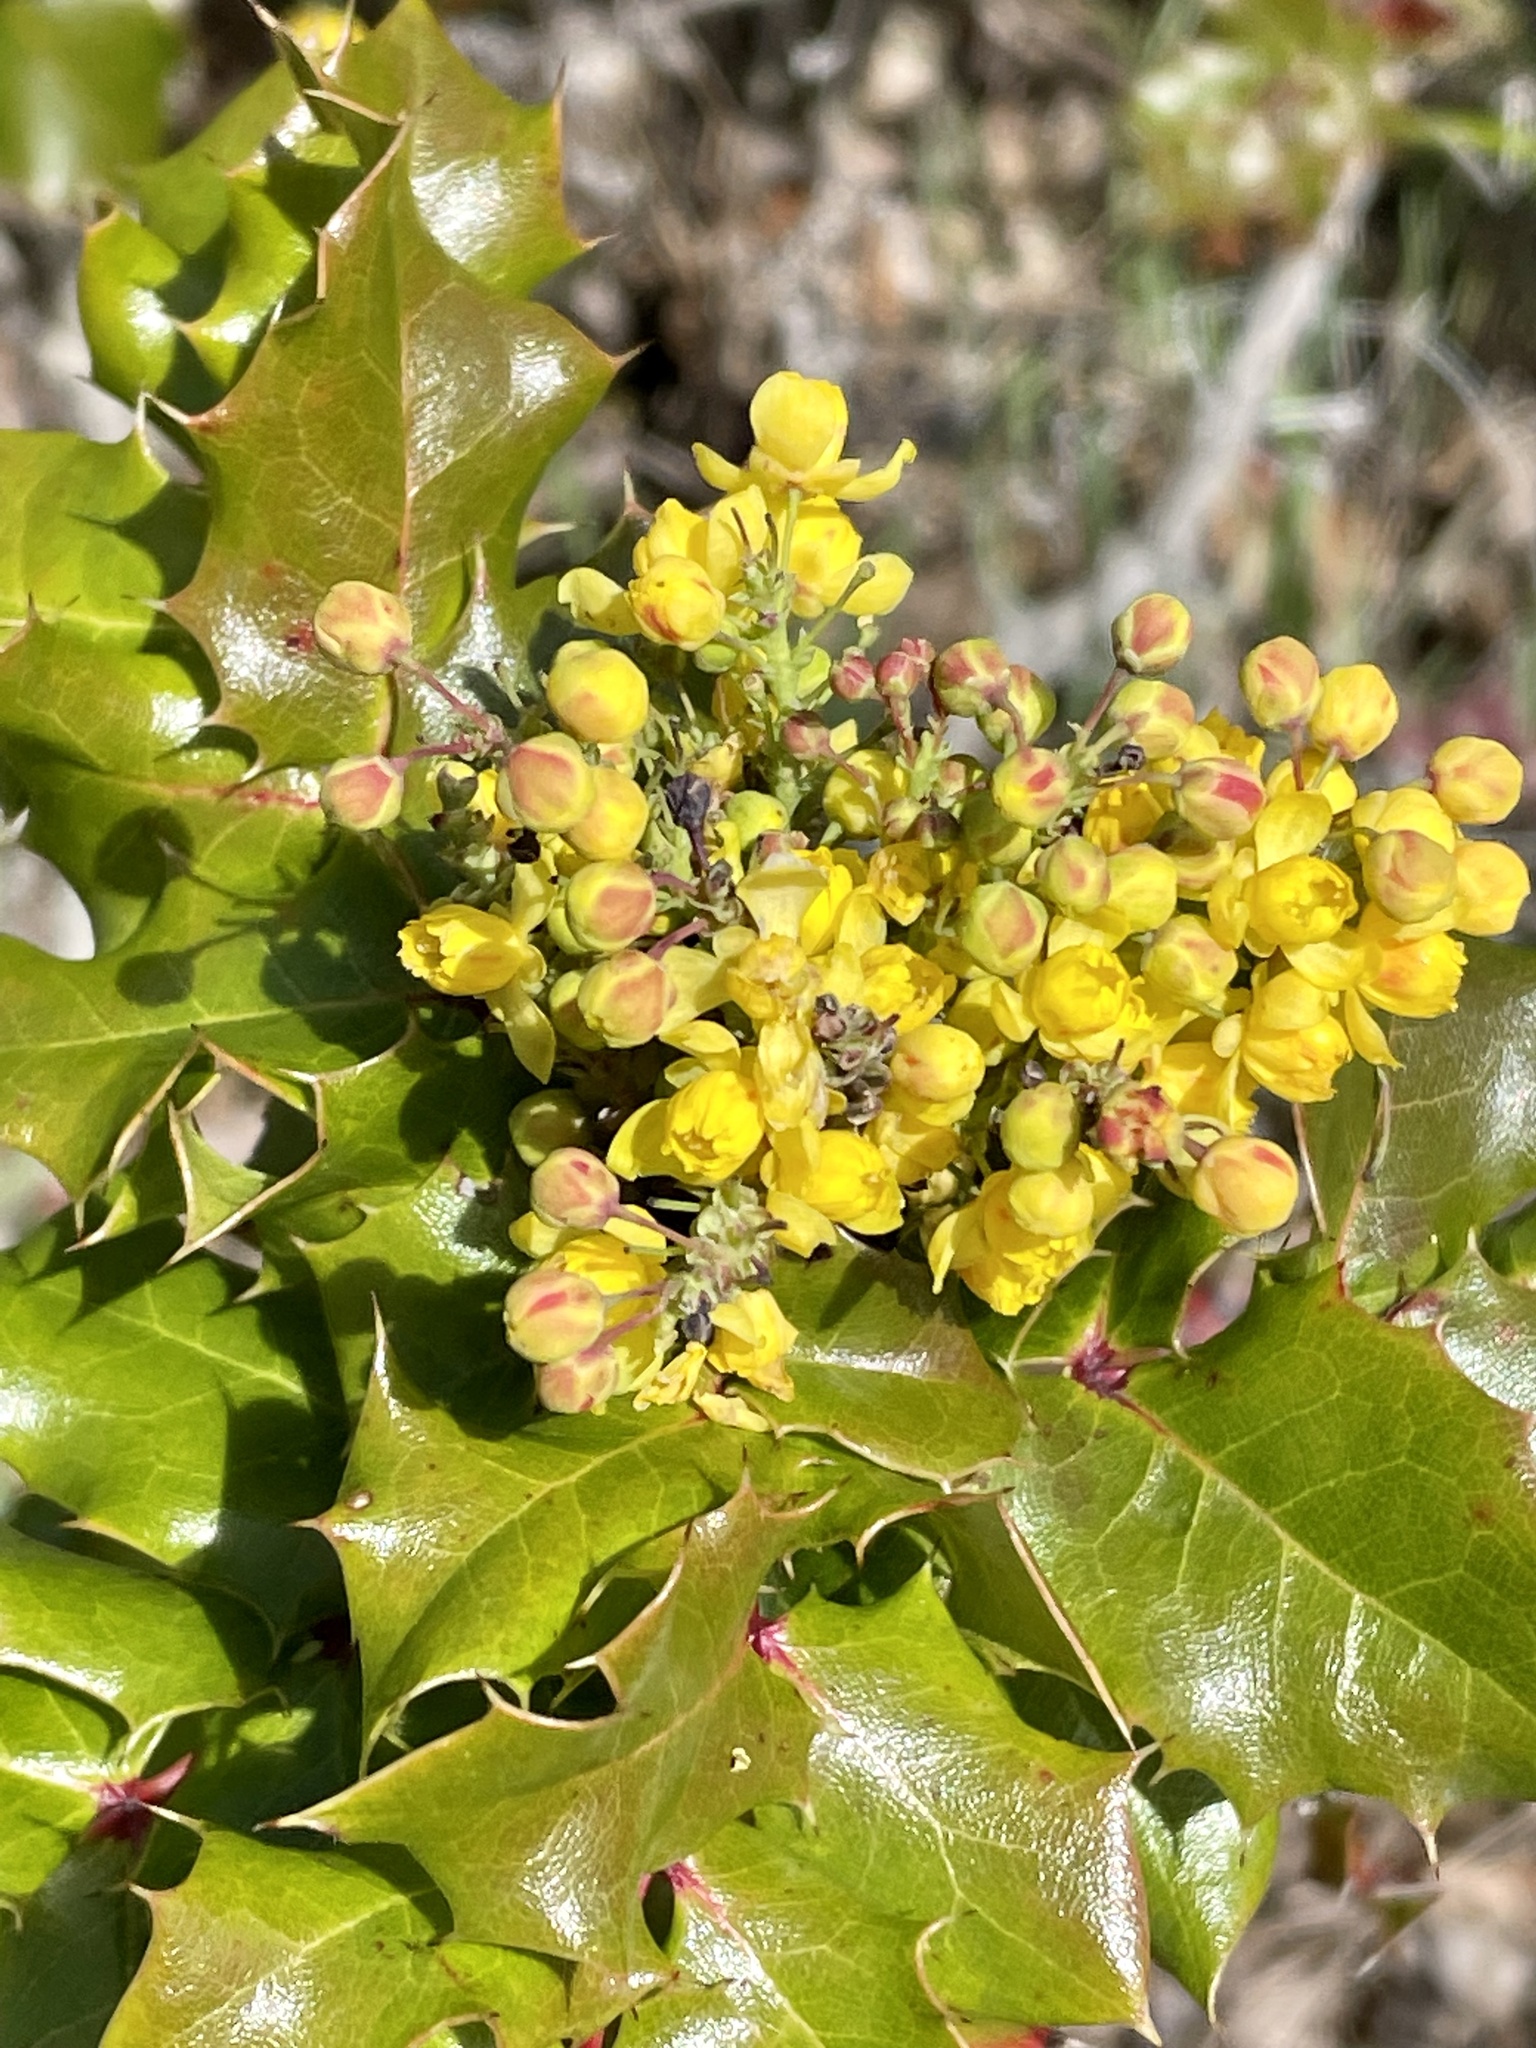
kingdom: Plantae
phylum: Tracheophyta
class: Magnoliopsida
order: Ranunculales
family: Berberidaceae
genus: Mahonia
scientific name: Mahonia
